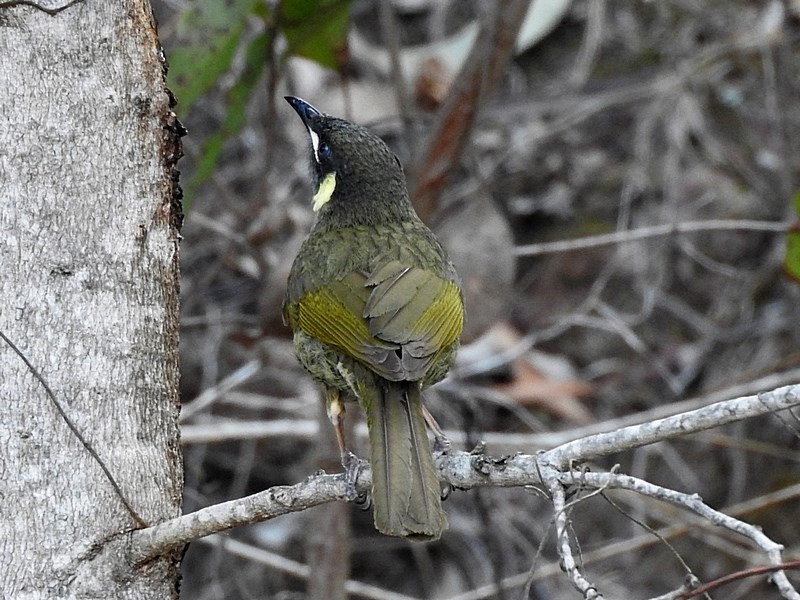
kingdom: Animalia
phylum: Chordata
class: Aves
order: Passeriformes
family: Meliphagidae
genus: Meliphaga
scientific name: Meliphaga lewinii
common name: Lewin's honeyeater
